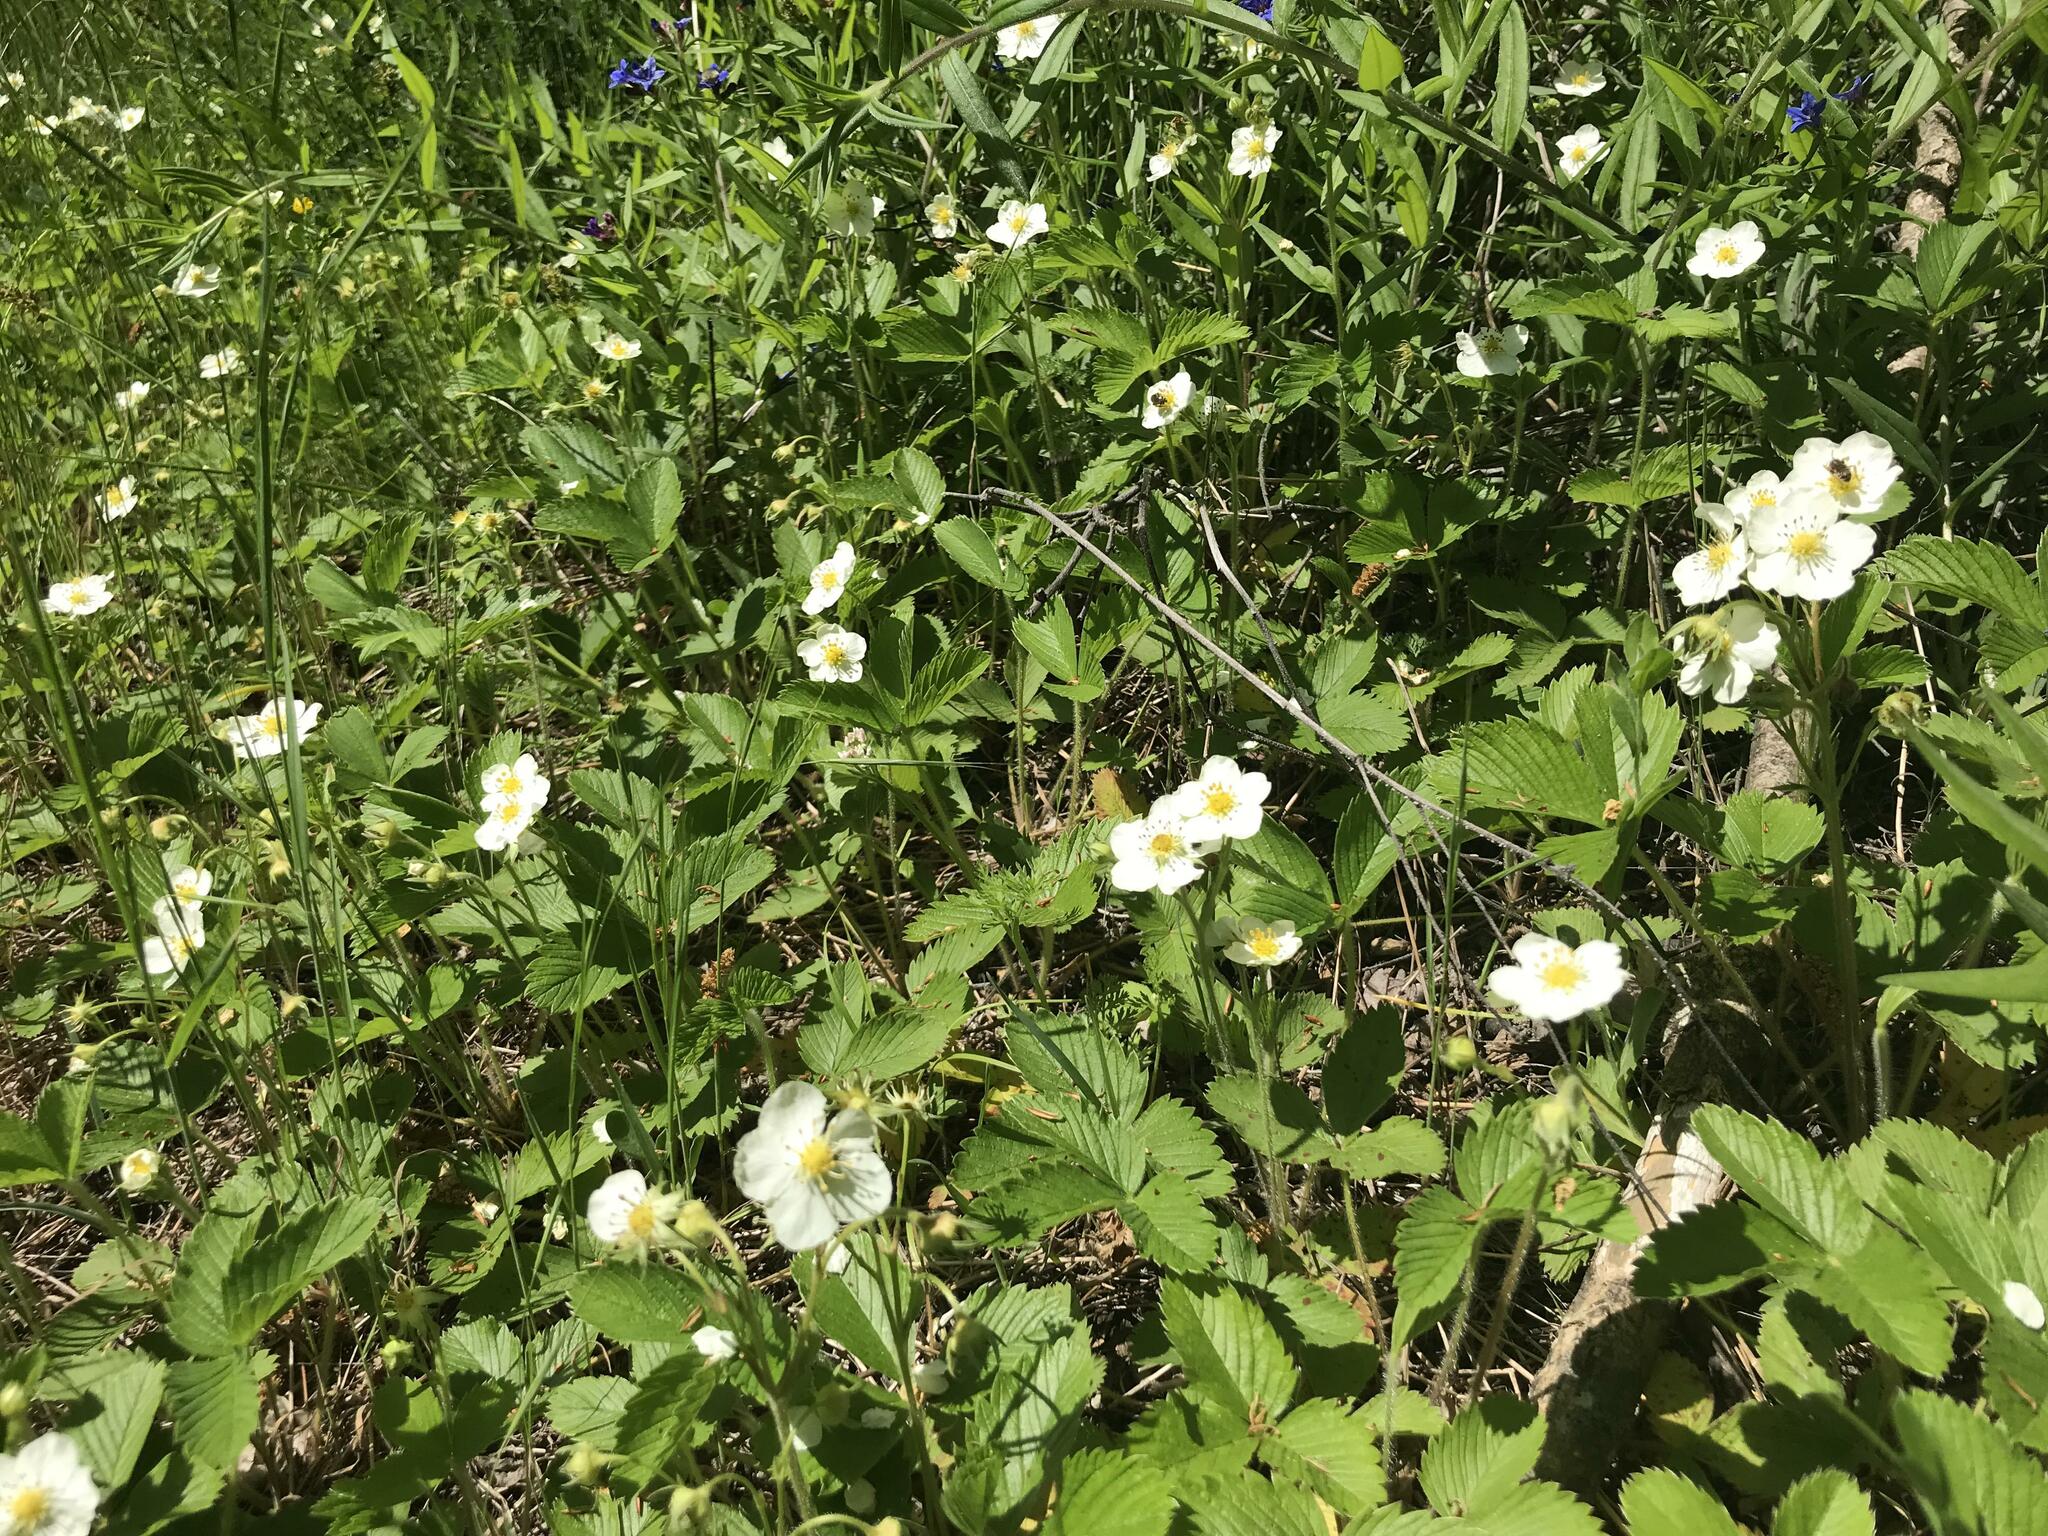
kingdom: Plantae
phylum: Tracheophyta
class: Magnoliopsida
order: Rosales
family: Rosaceae
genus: Fragaria
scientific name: Fragaria viridis
